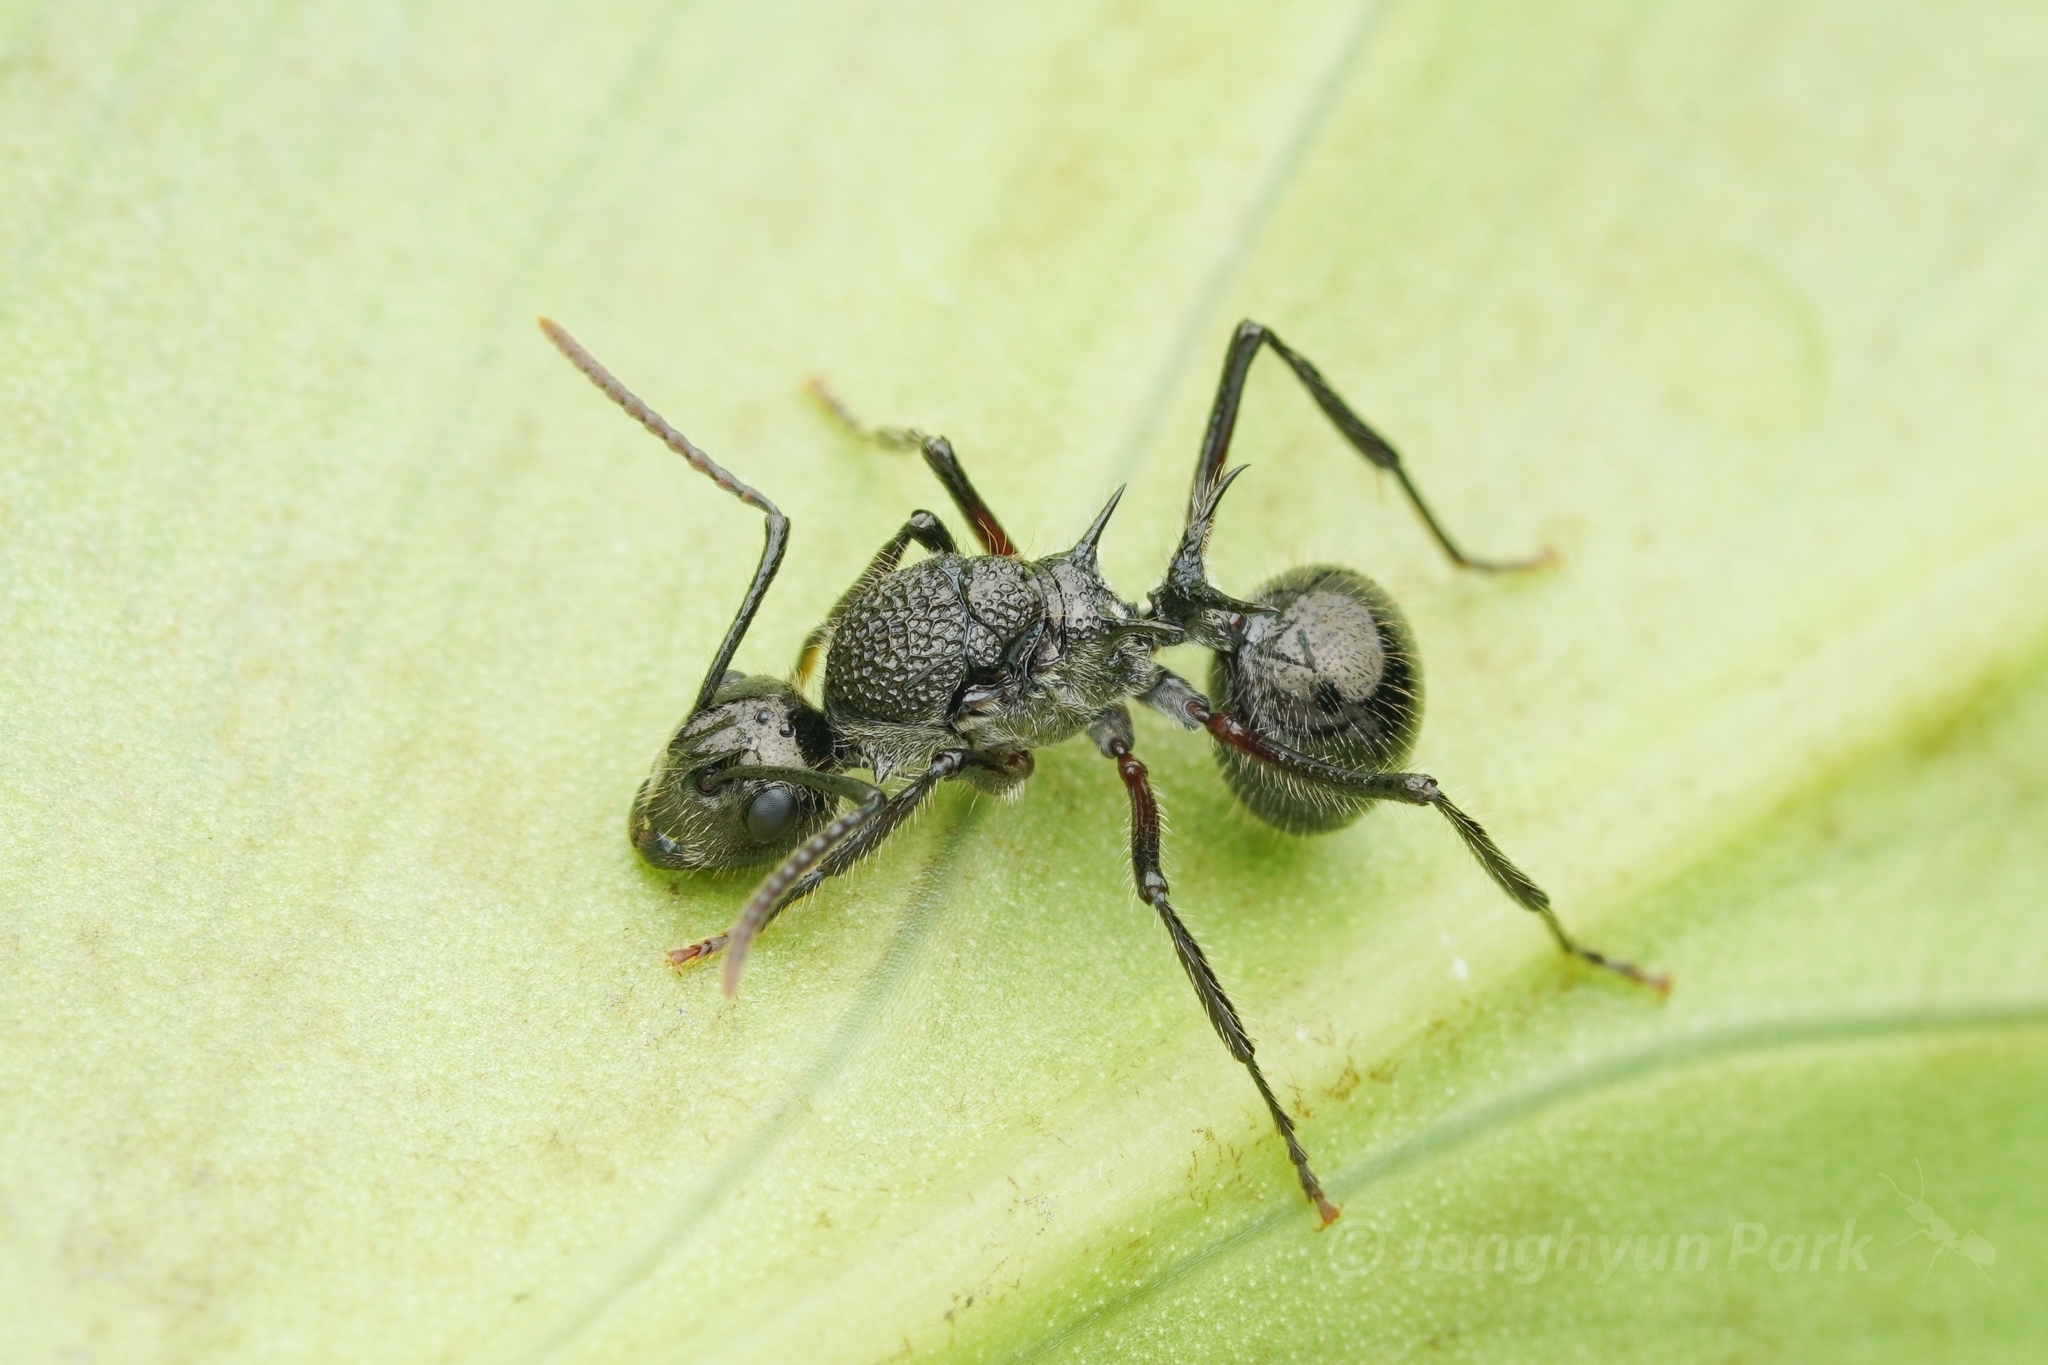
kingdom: Animalia
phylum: Arthropoda
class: Insecta
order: Hymenoptera
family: Formicidae
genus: Polyrhachis
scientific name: Polyrhachis furcata
